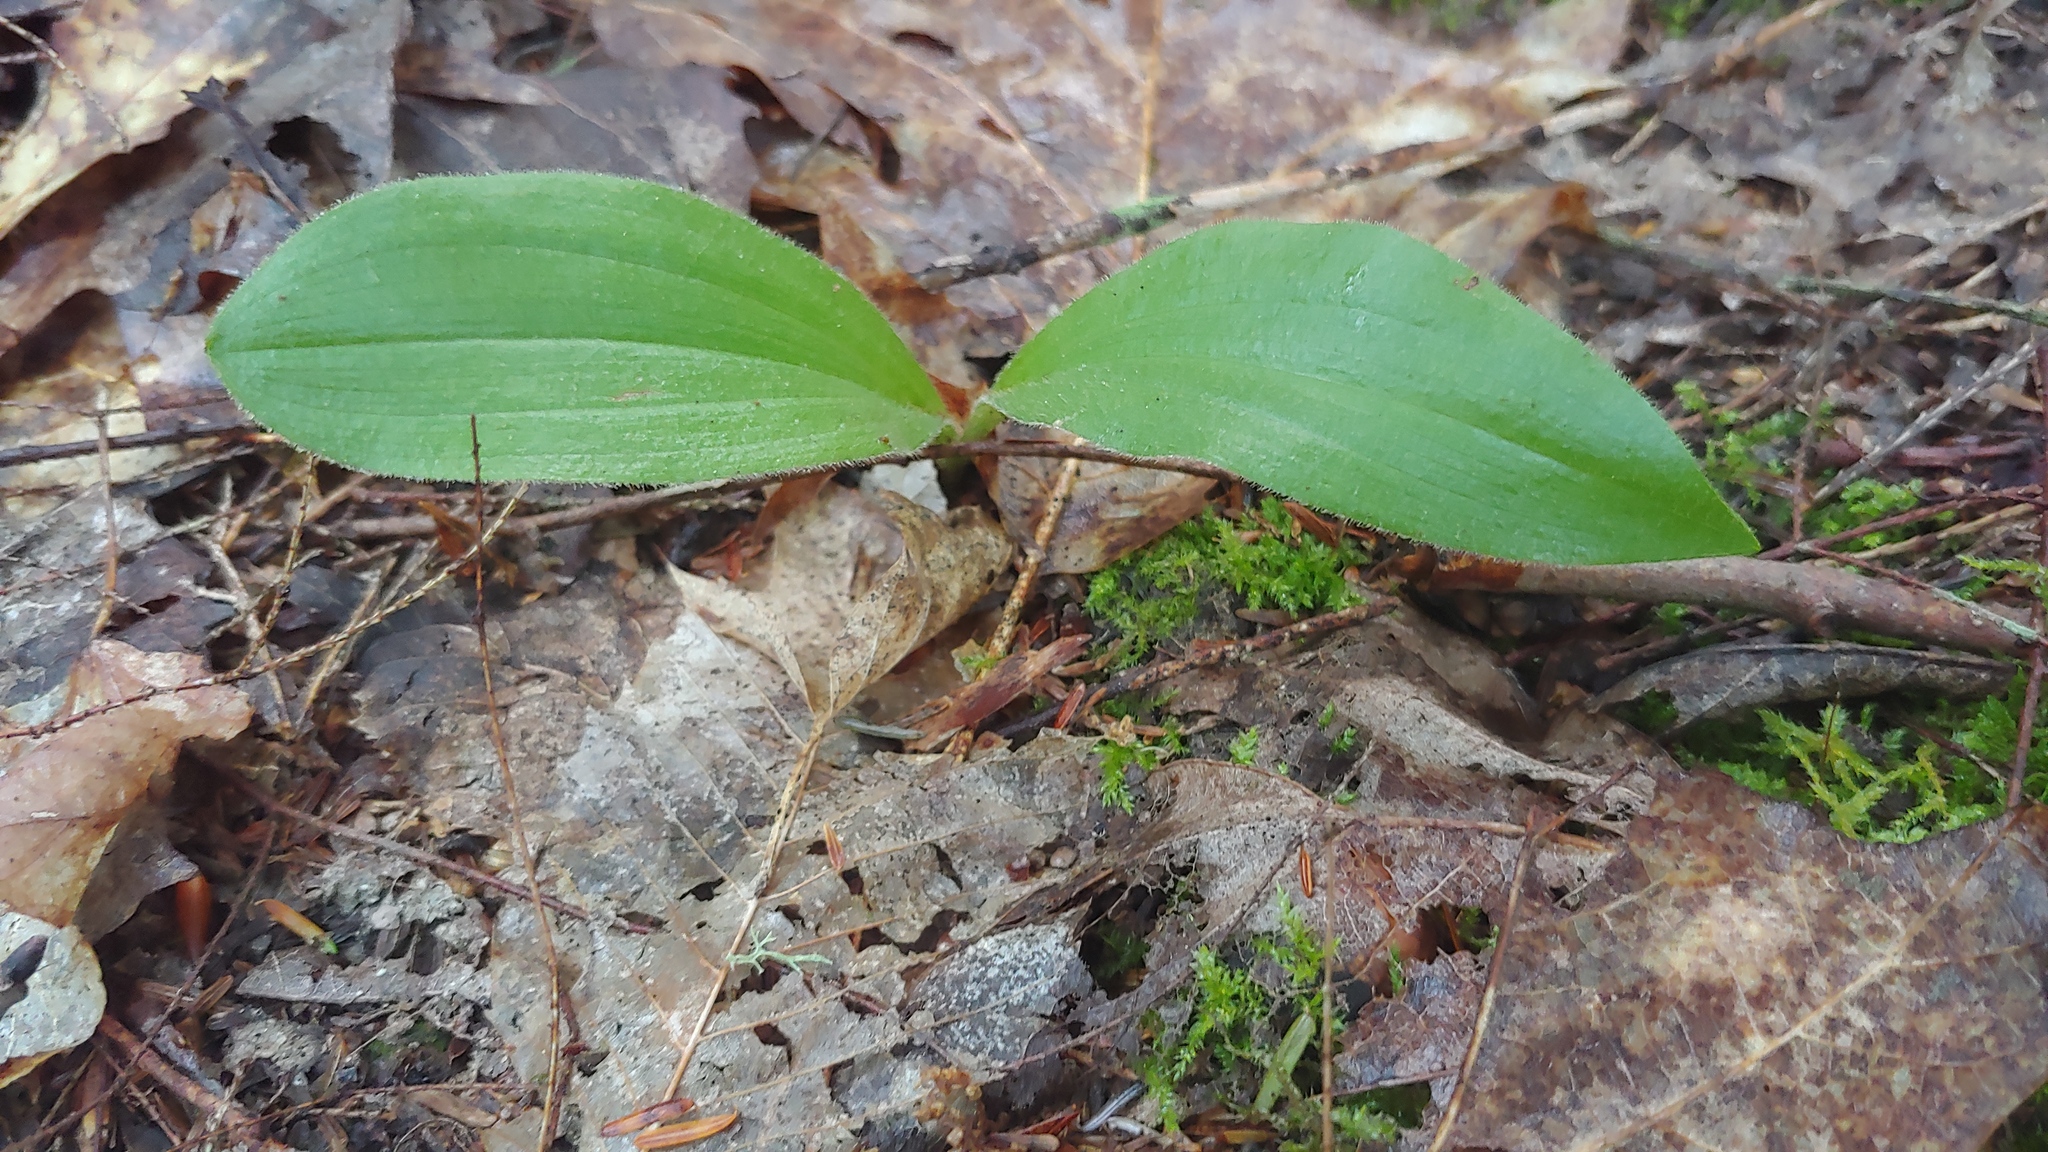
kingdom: Plantae
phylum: Tracheophyta
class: Liliopsida
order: Asparagales
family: Orchidaceae
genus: Cypripedium
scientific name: Cypripedium acaule
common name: Pink lady's-slipper
